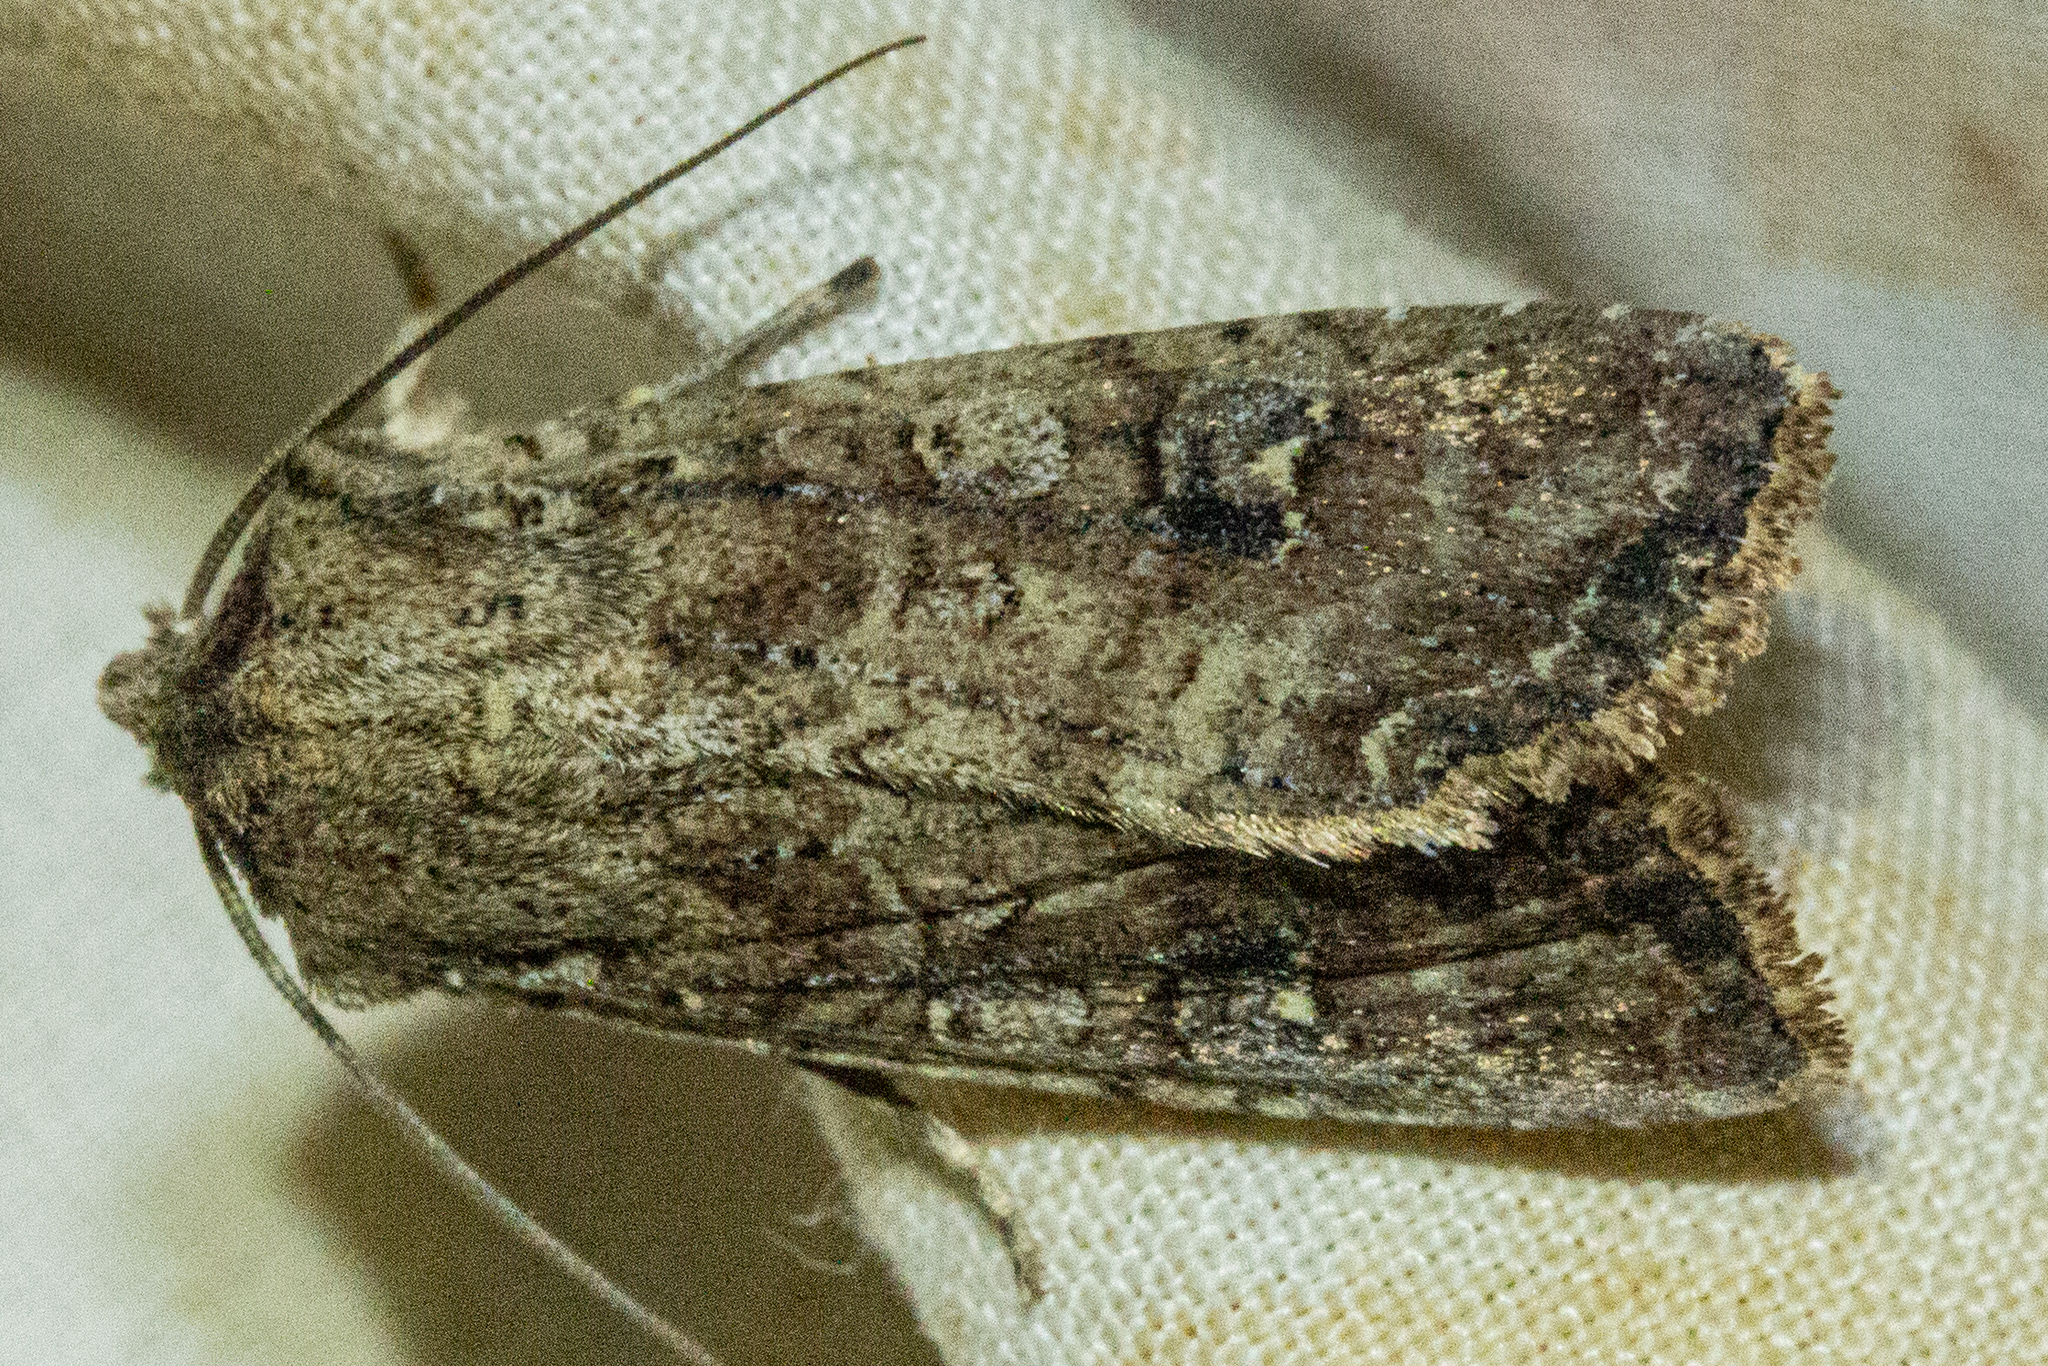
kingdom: Animalia
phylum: Arthropoda
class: Insecta
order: Lepidoptera
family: Noctuidae
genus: Ichneutica
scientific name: Ichneutica morosa
